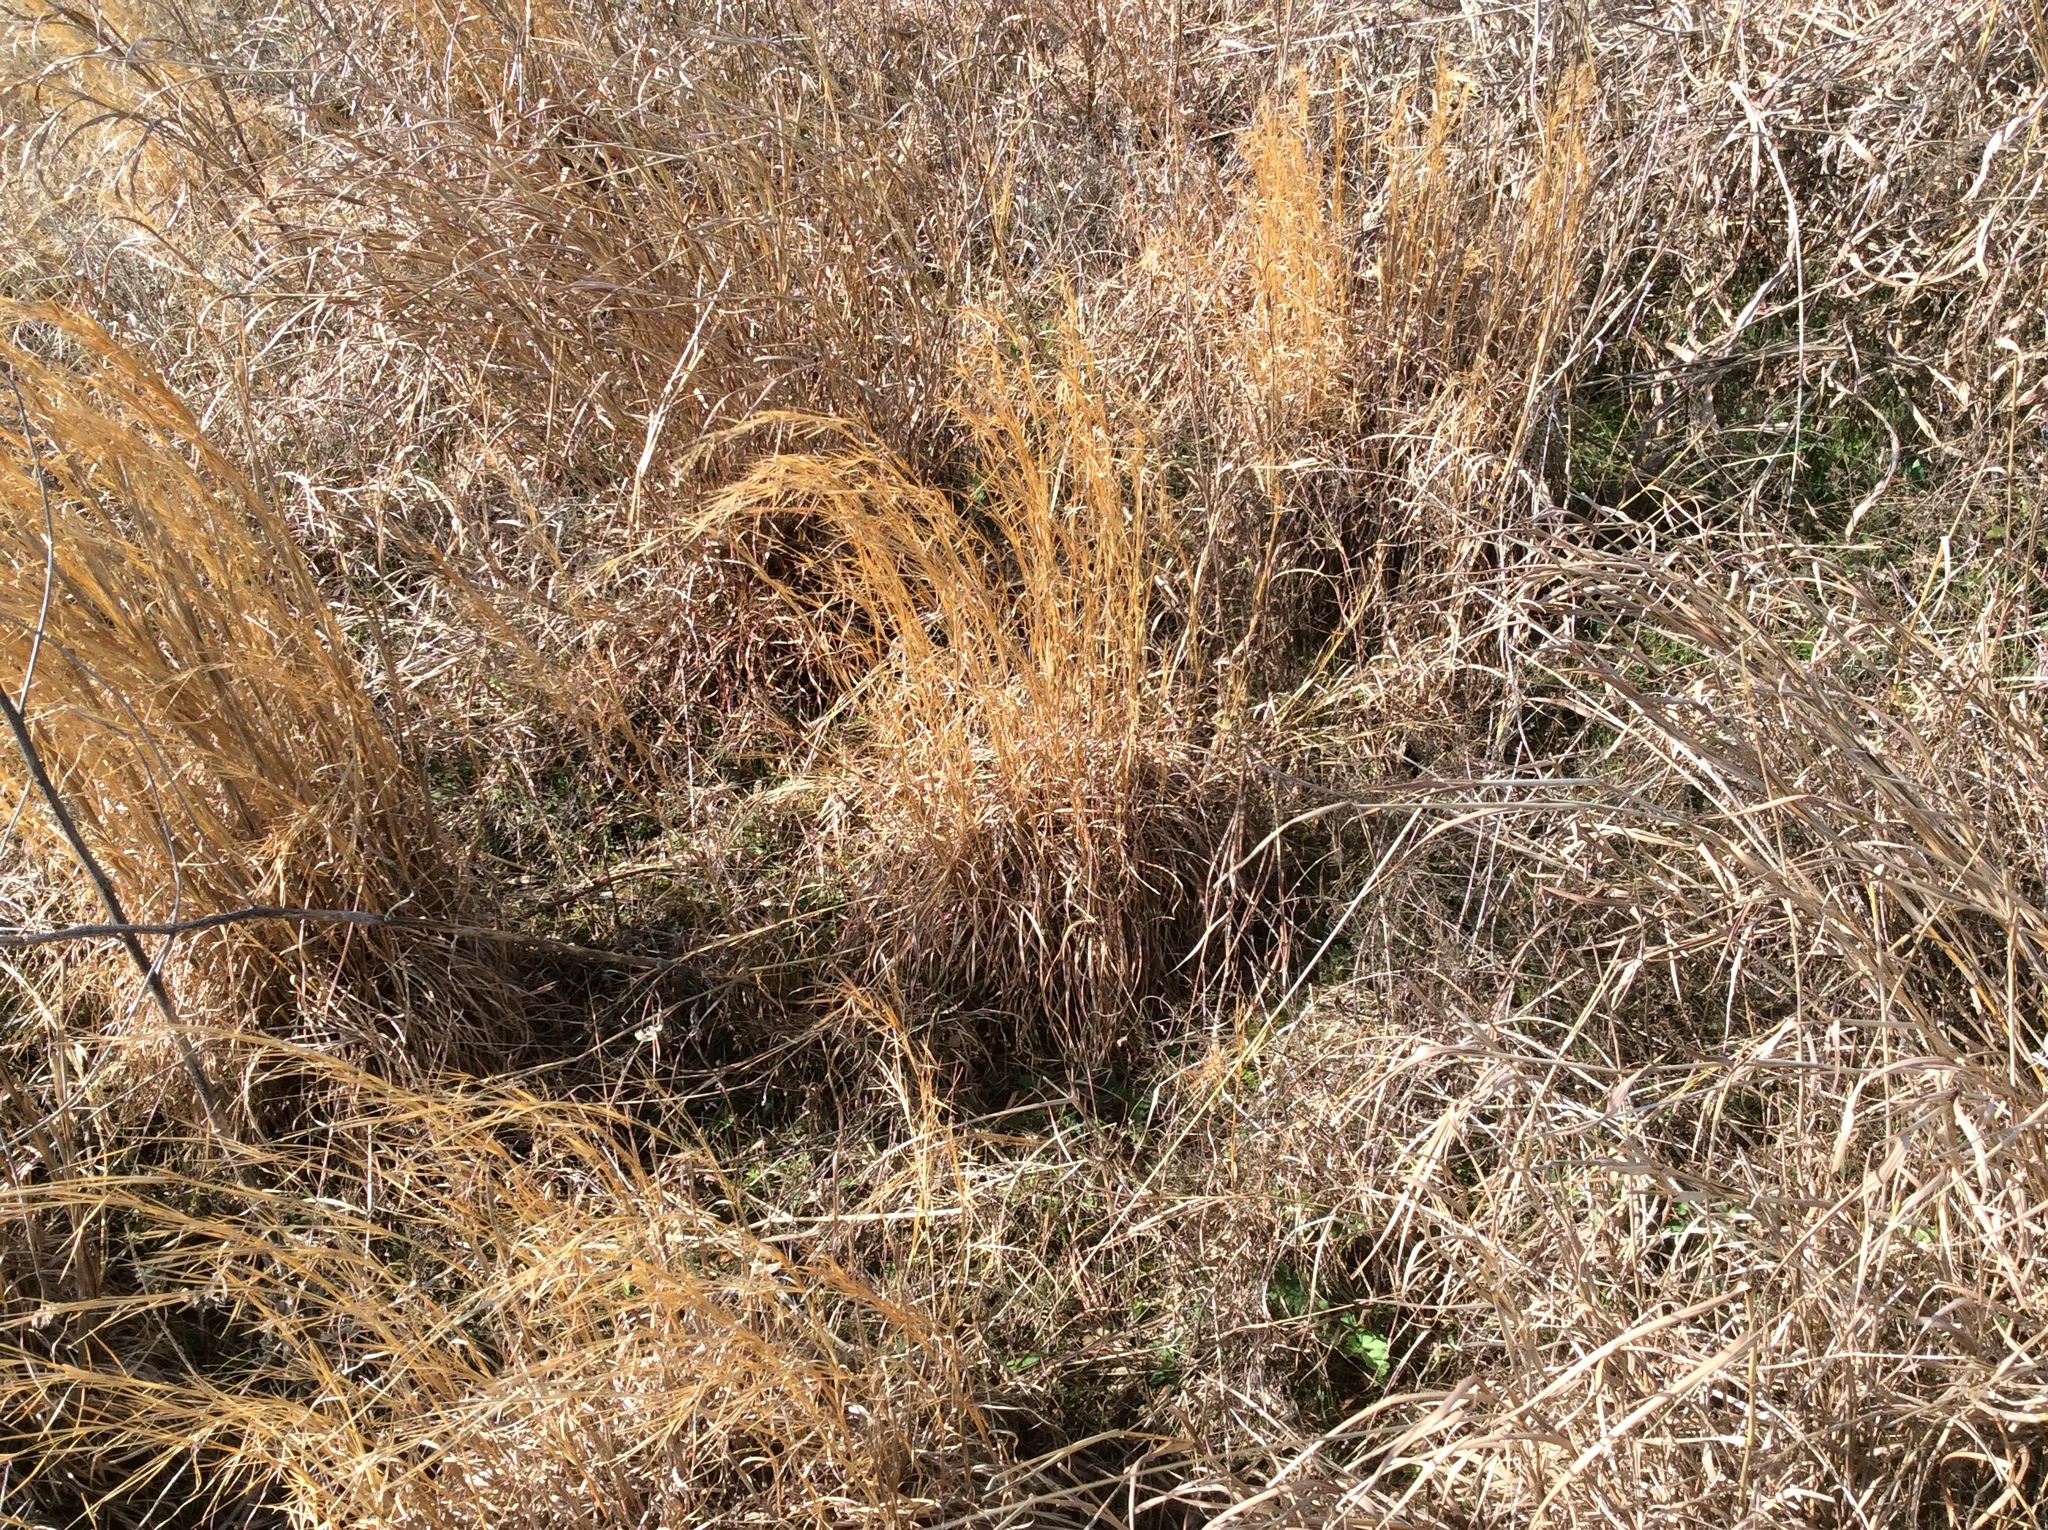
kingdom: Plantae
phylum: Tracheophyta
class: Liliopsida
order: Poales
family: Poaceae
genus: Schizachyrium
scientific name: Schizachyrium scoparium
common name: Little bluestem
